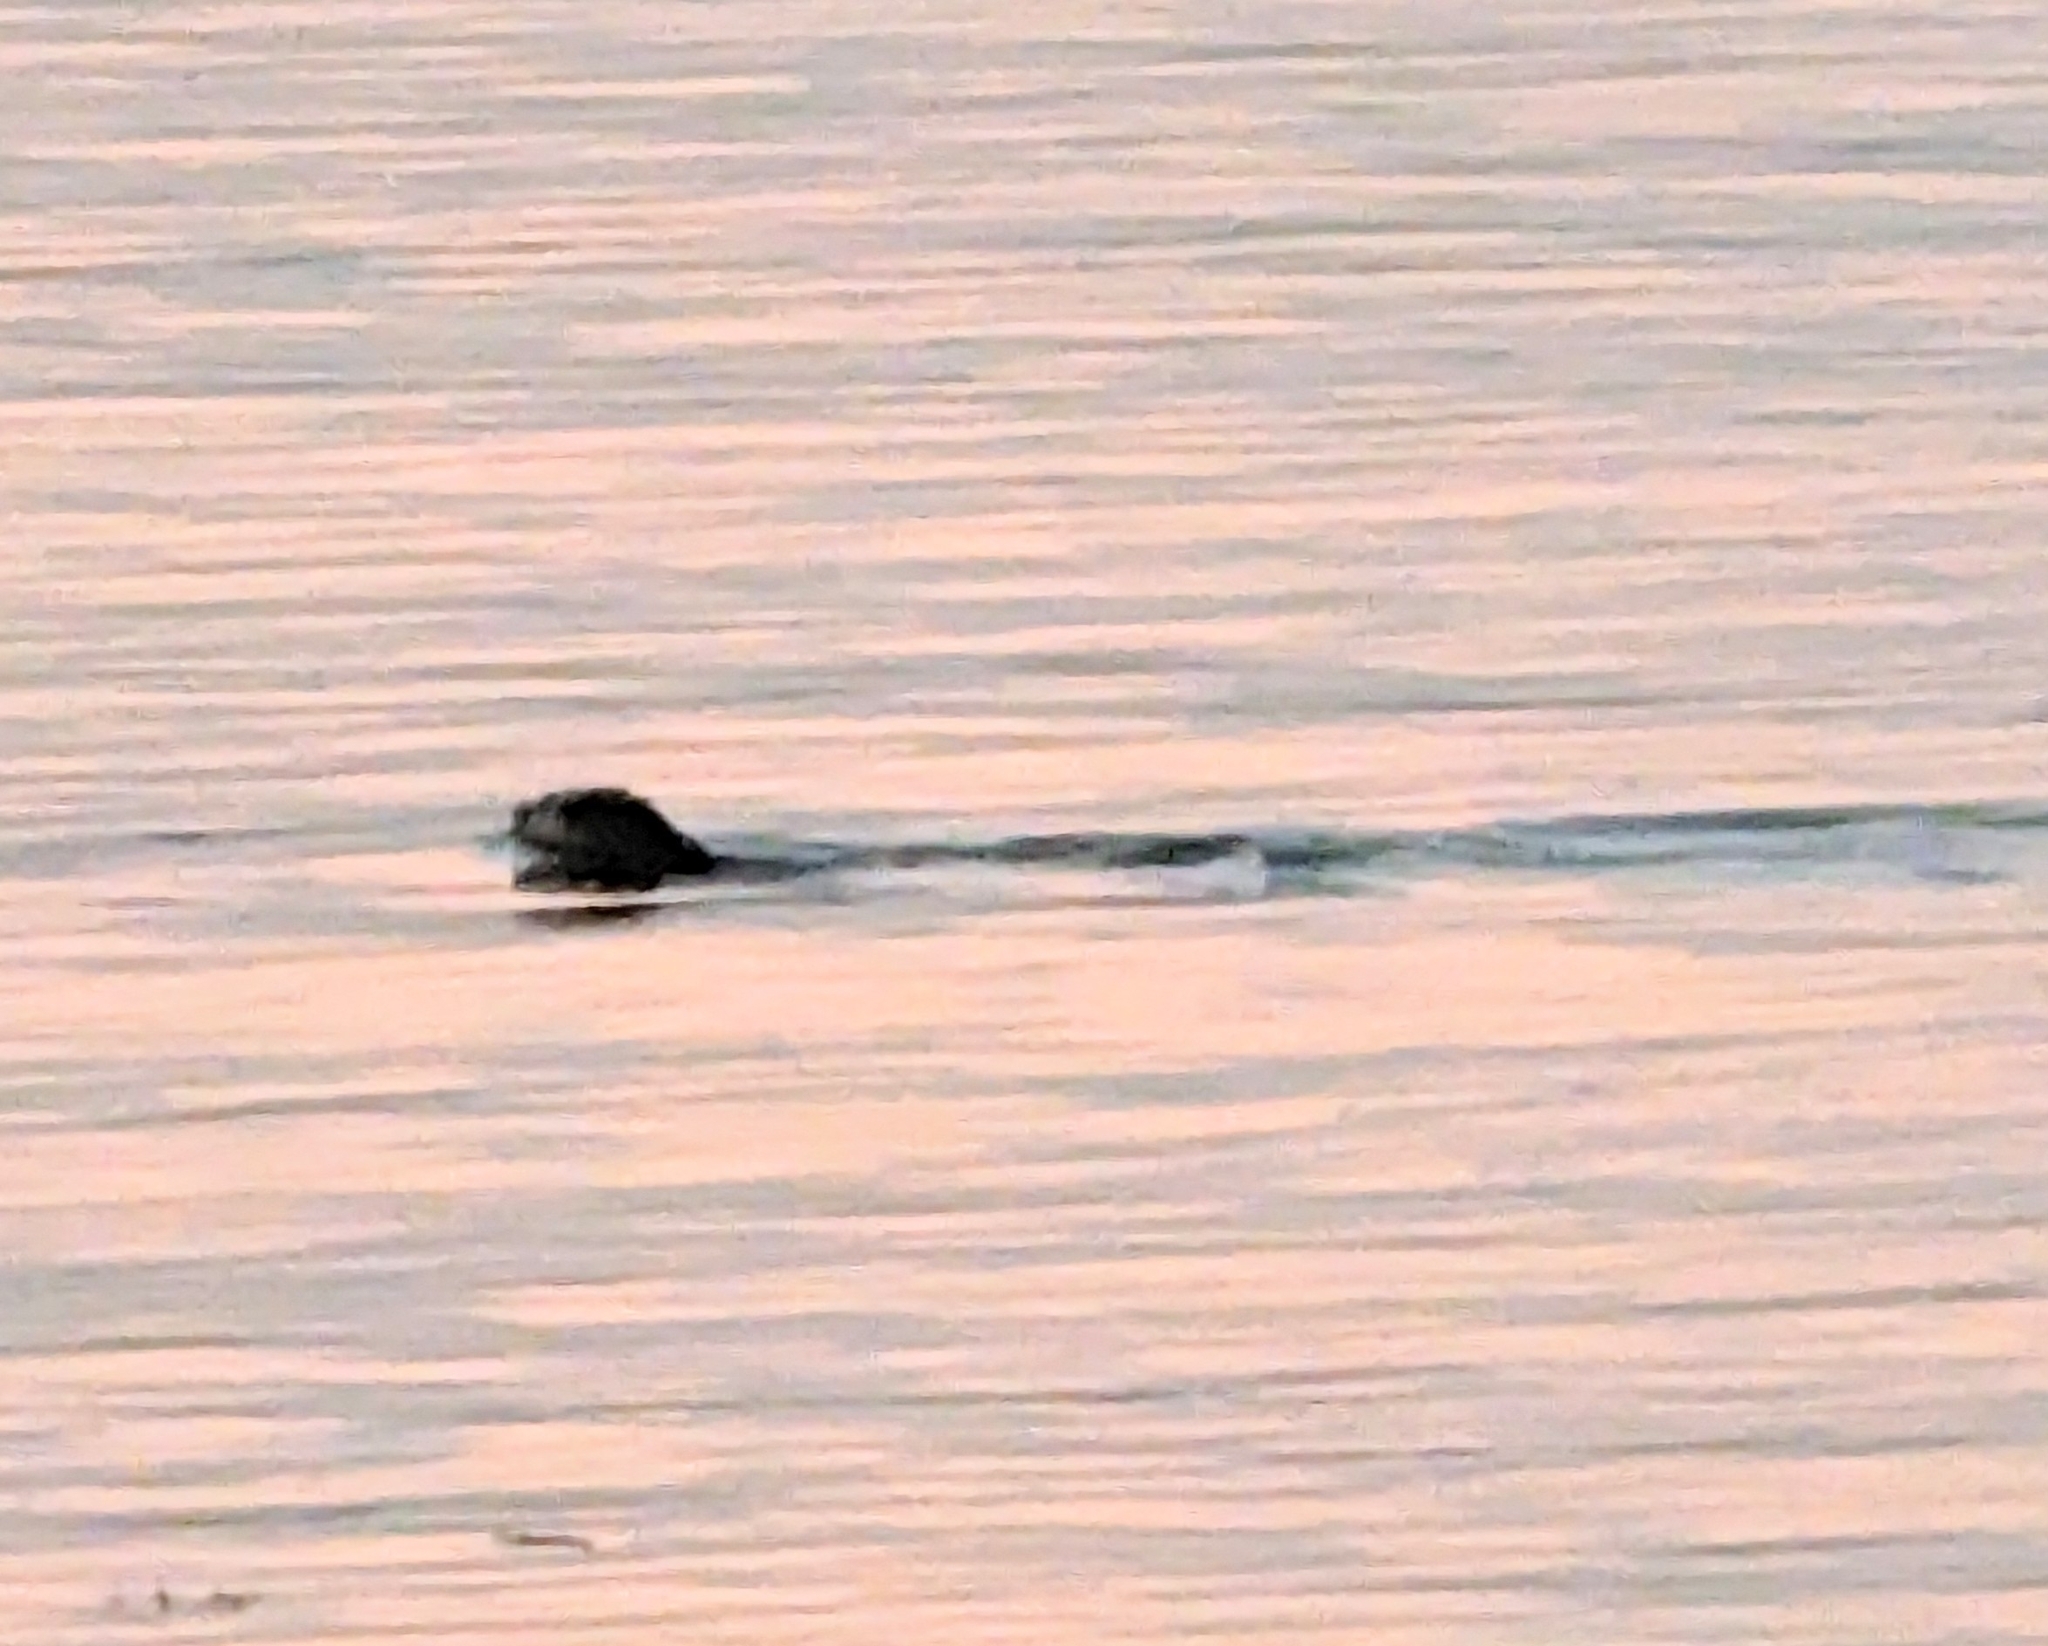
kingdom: Animalia
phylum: Chordata
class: Mammalia
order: Carnivora
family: Mustelidae
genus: Lontra
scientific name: Lontra canadensis
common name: North american river otter
